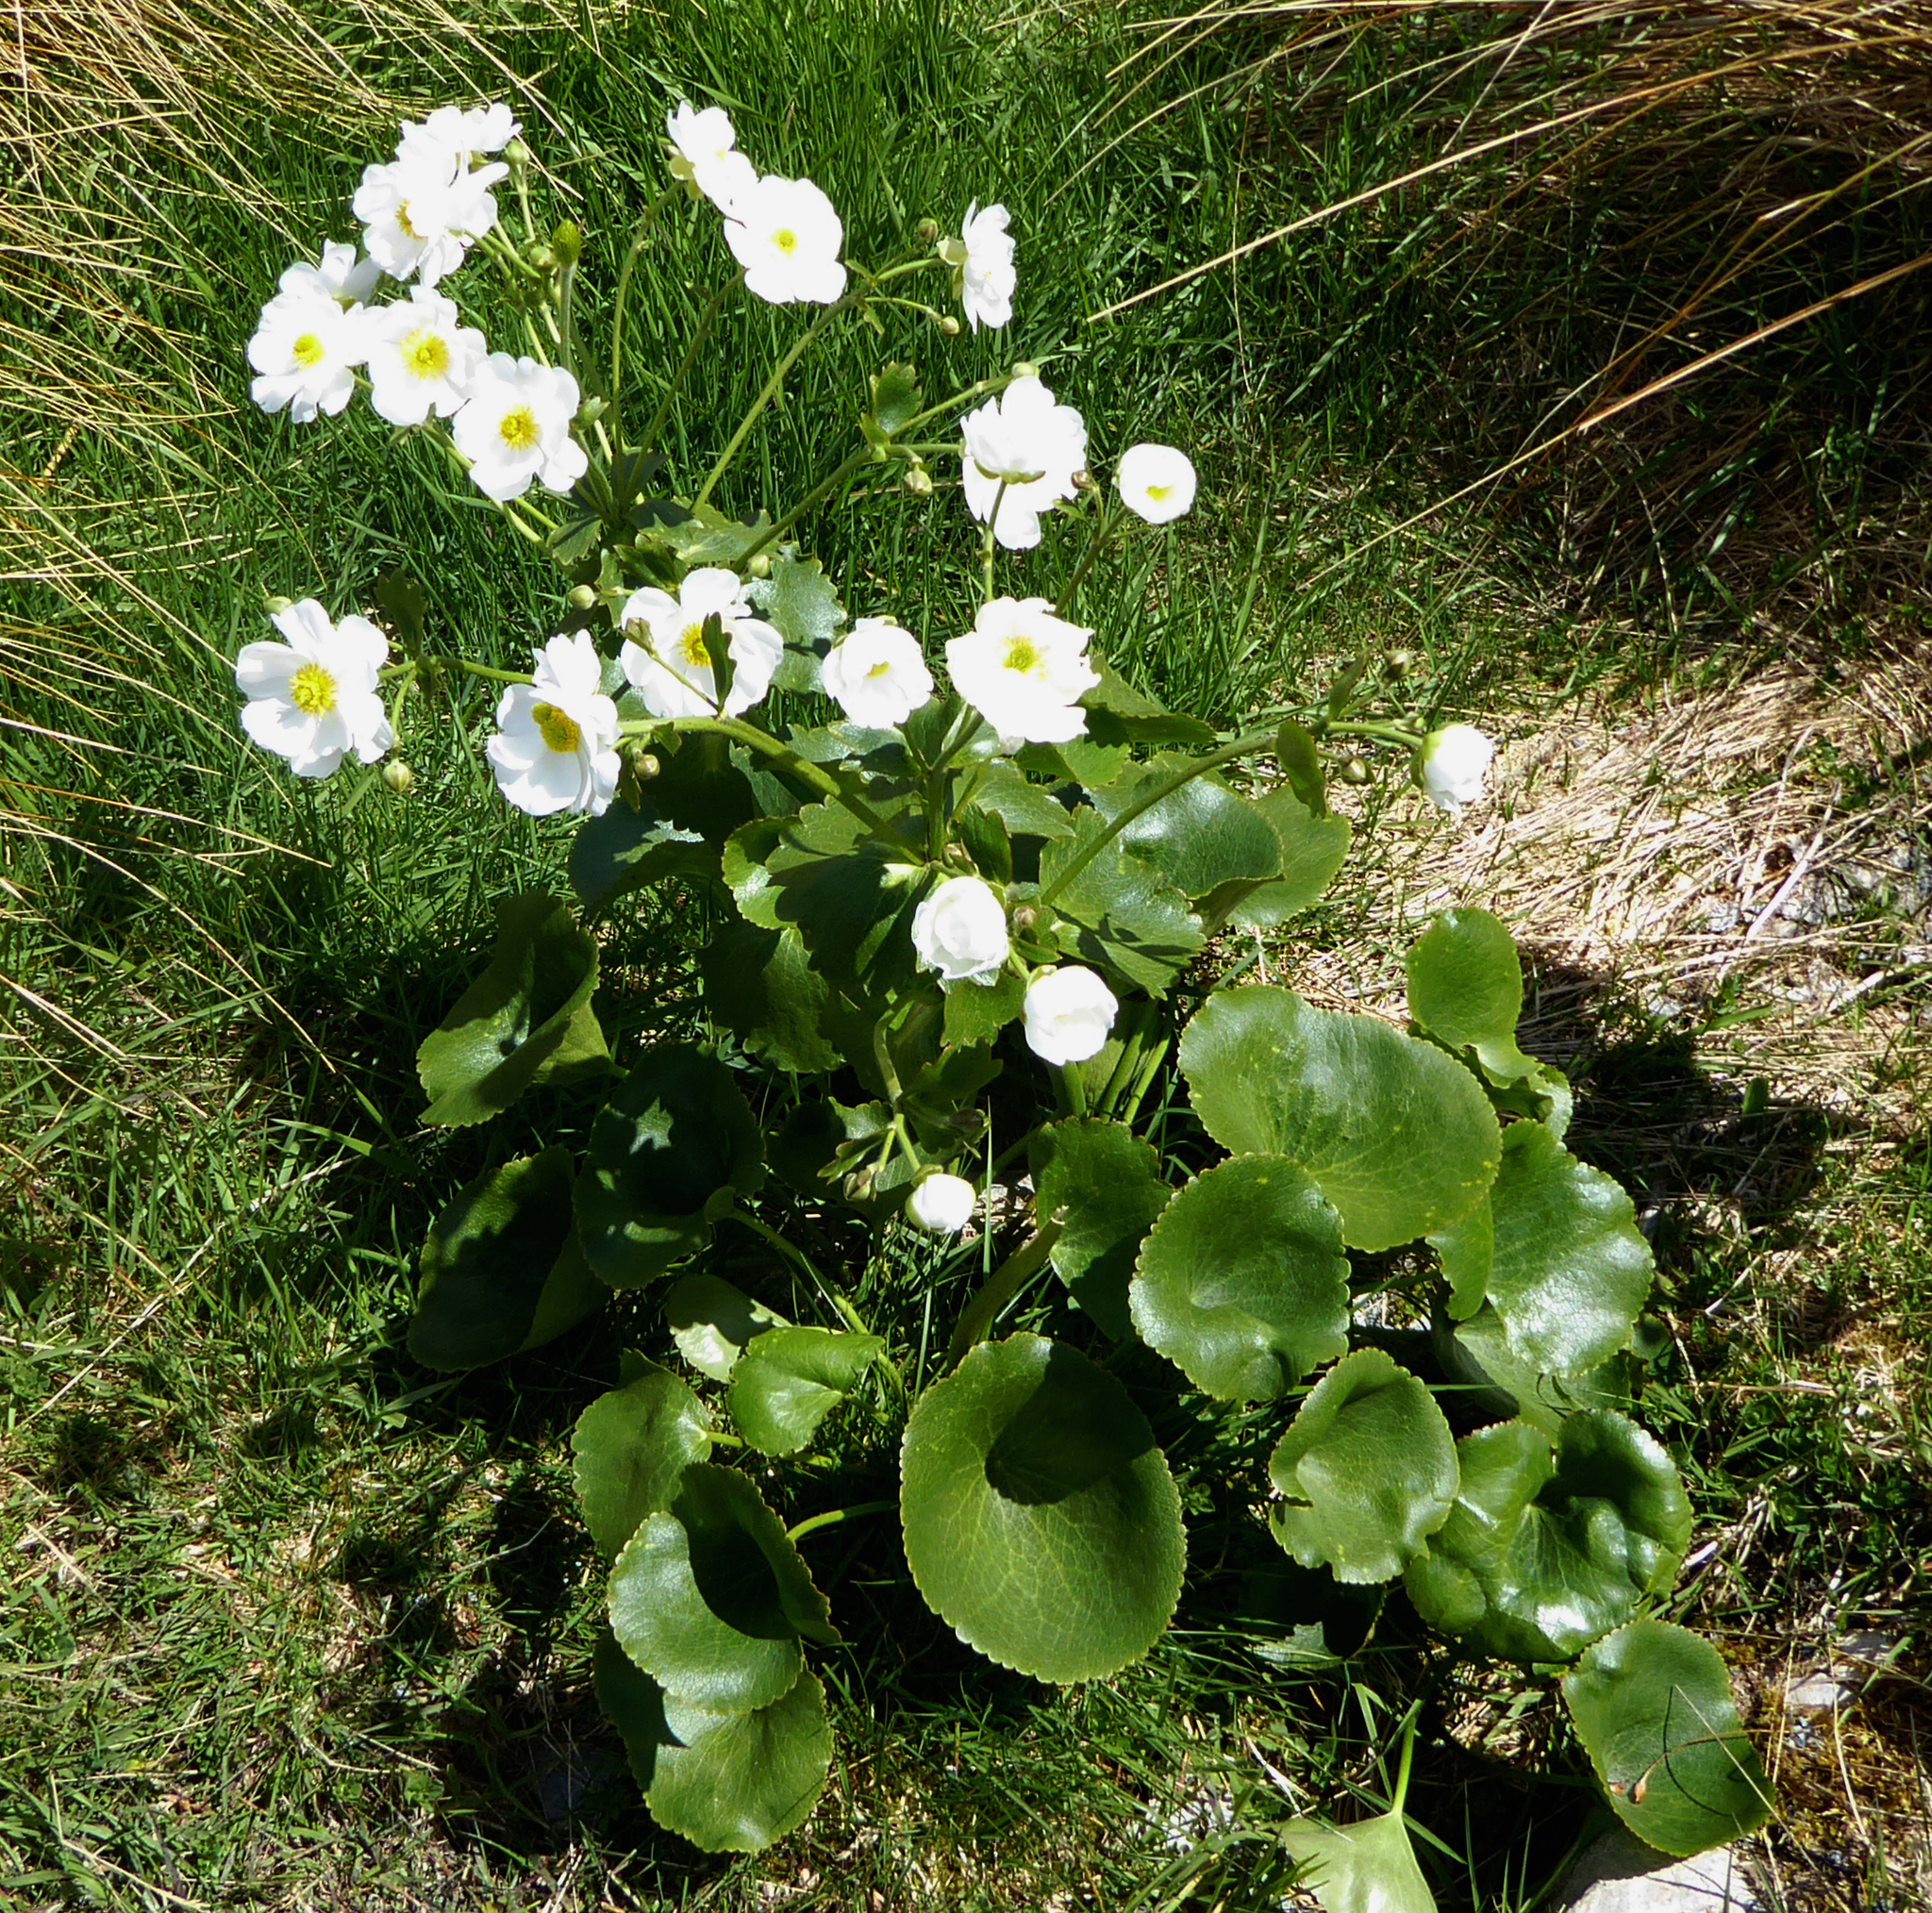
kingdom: Plantae
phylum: Tracheophyta
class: Magnoliopsida
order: Ranunculales
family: Ranunculaceae
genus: Ranunculus
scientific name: Ranunculus lyallii
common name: Mountain-lily
